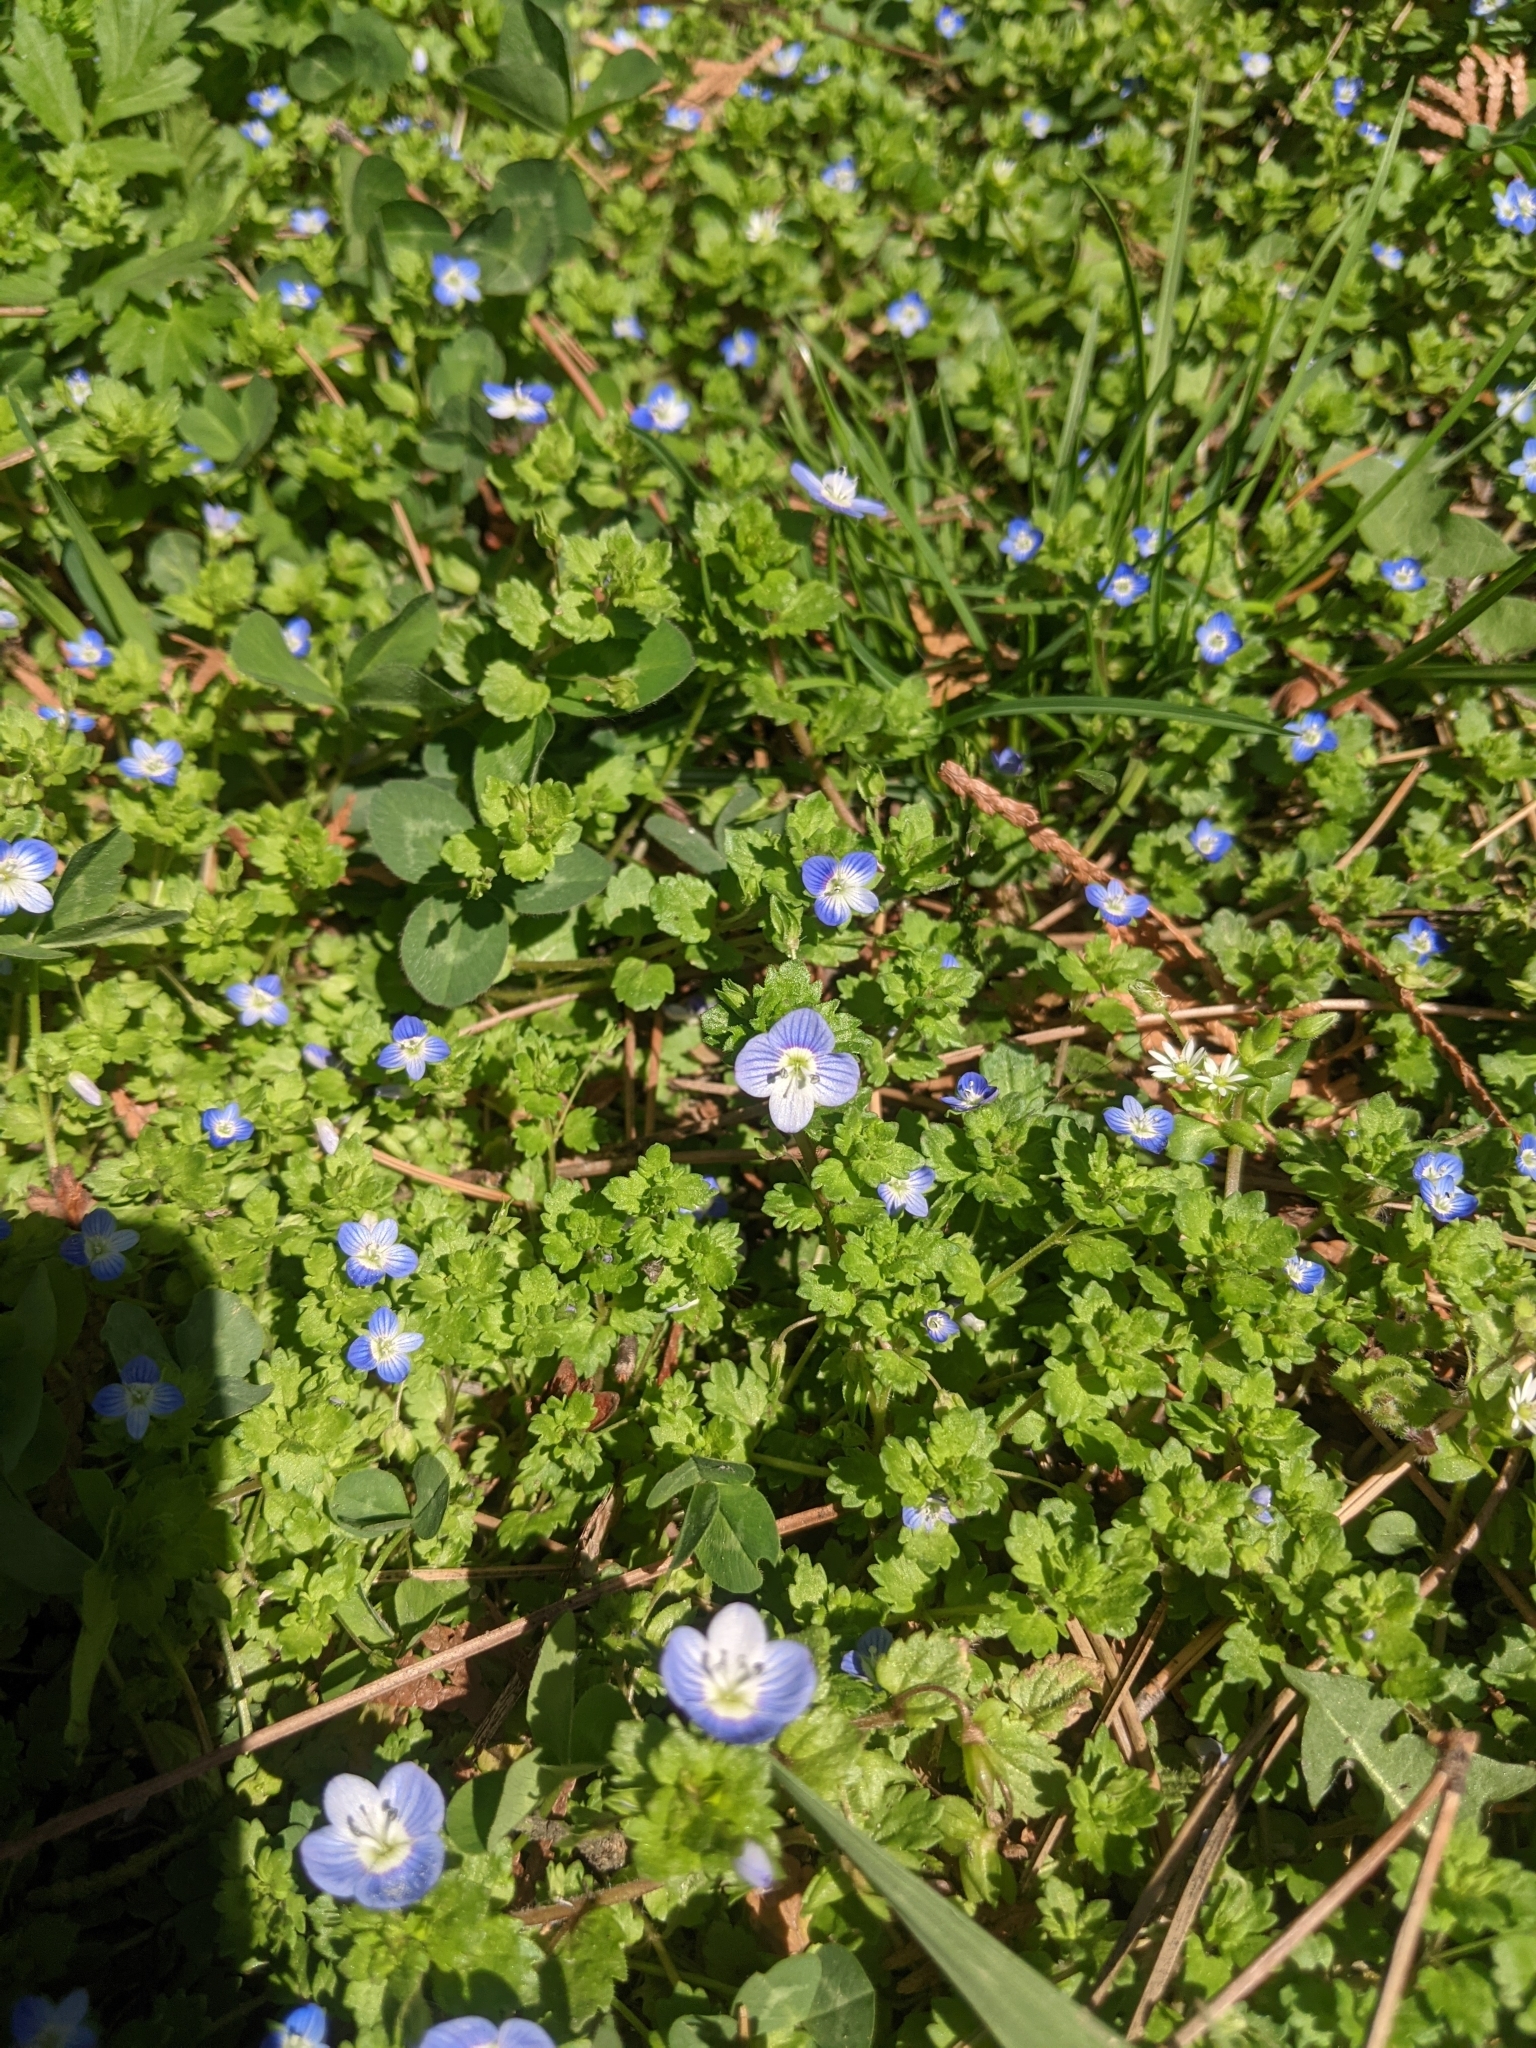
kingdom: Plantae
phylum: Tracheophyta
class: Magnoliopsida
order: Lamiales
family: Plantaginaceae
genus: Veronica
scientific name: Veronica persica
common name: Common field-speedwell
